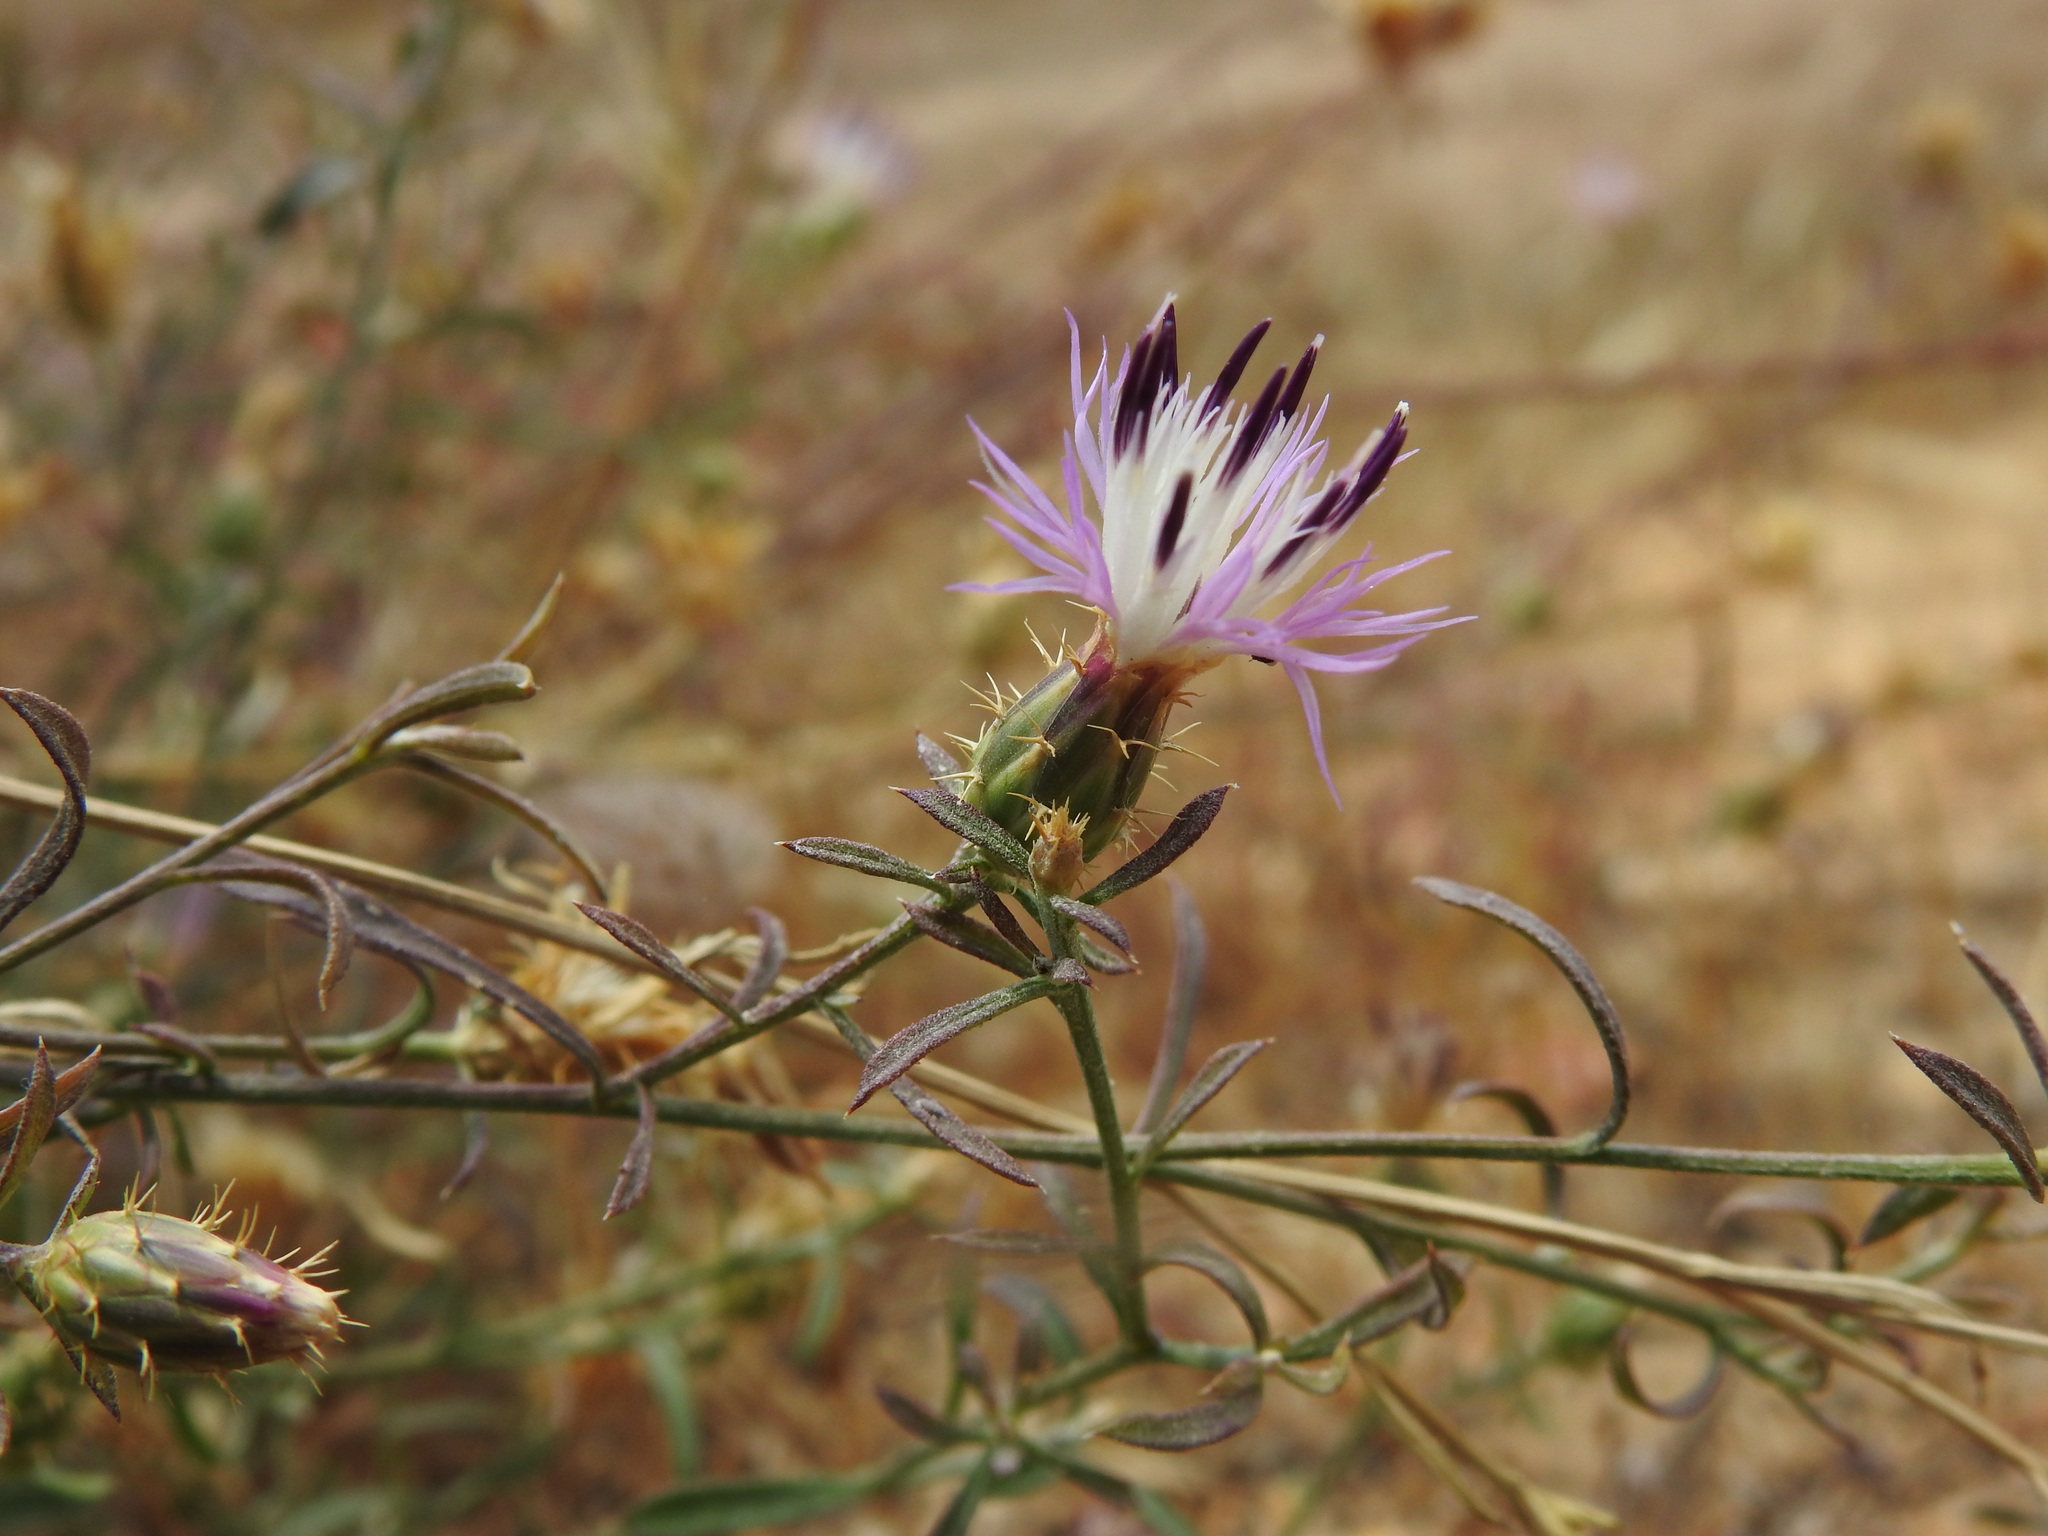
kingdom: Plantae
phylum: Tracheophyta
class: Magnoliopsida
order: Asterales
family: Asteraceae
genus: Centaurea
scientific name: Centaurea aspera
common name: Rough star-thistle
